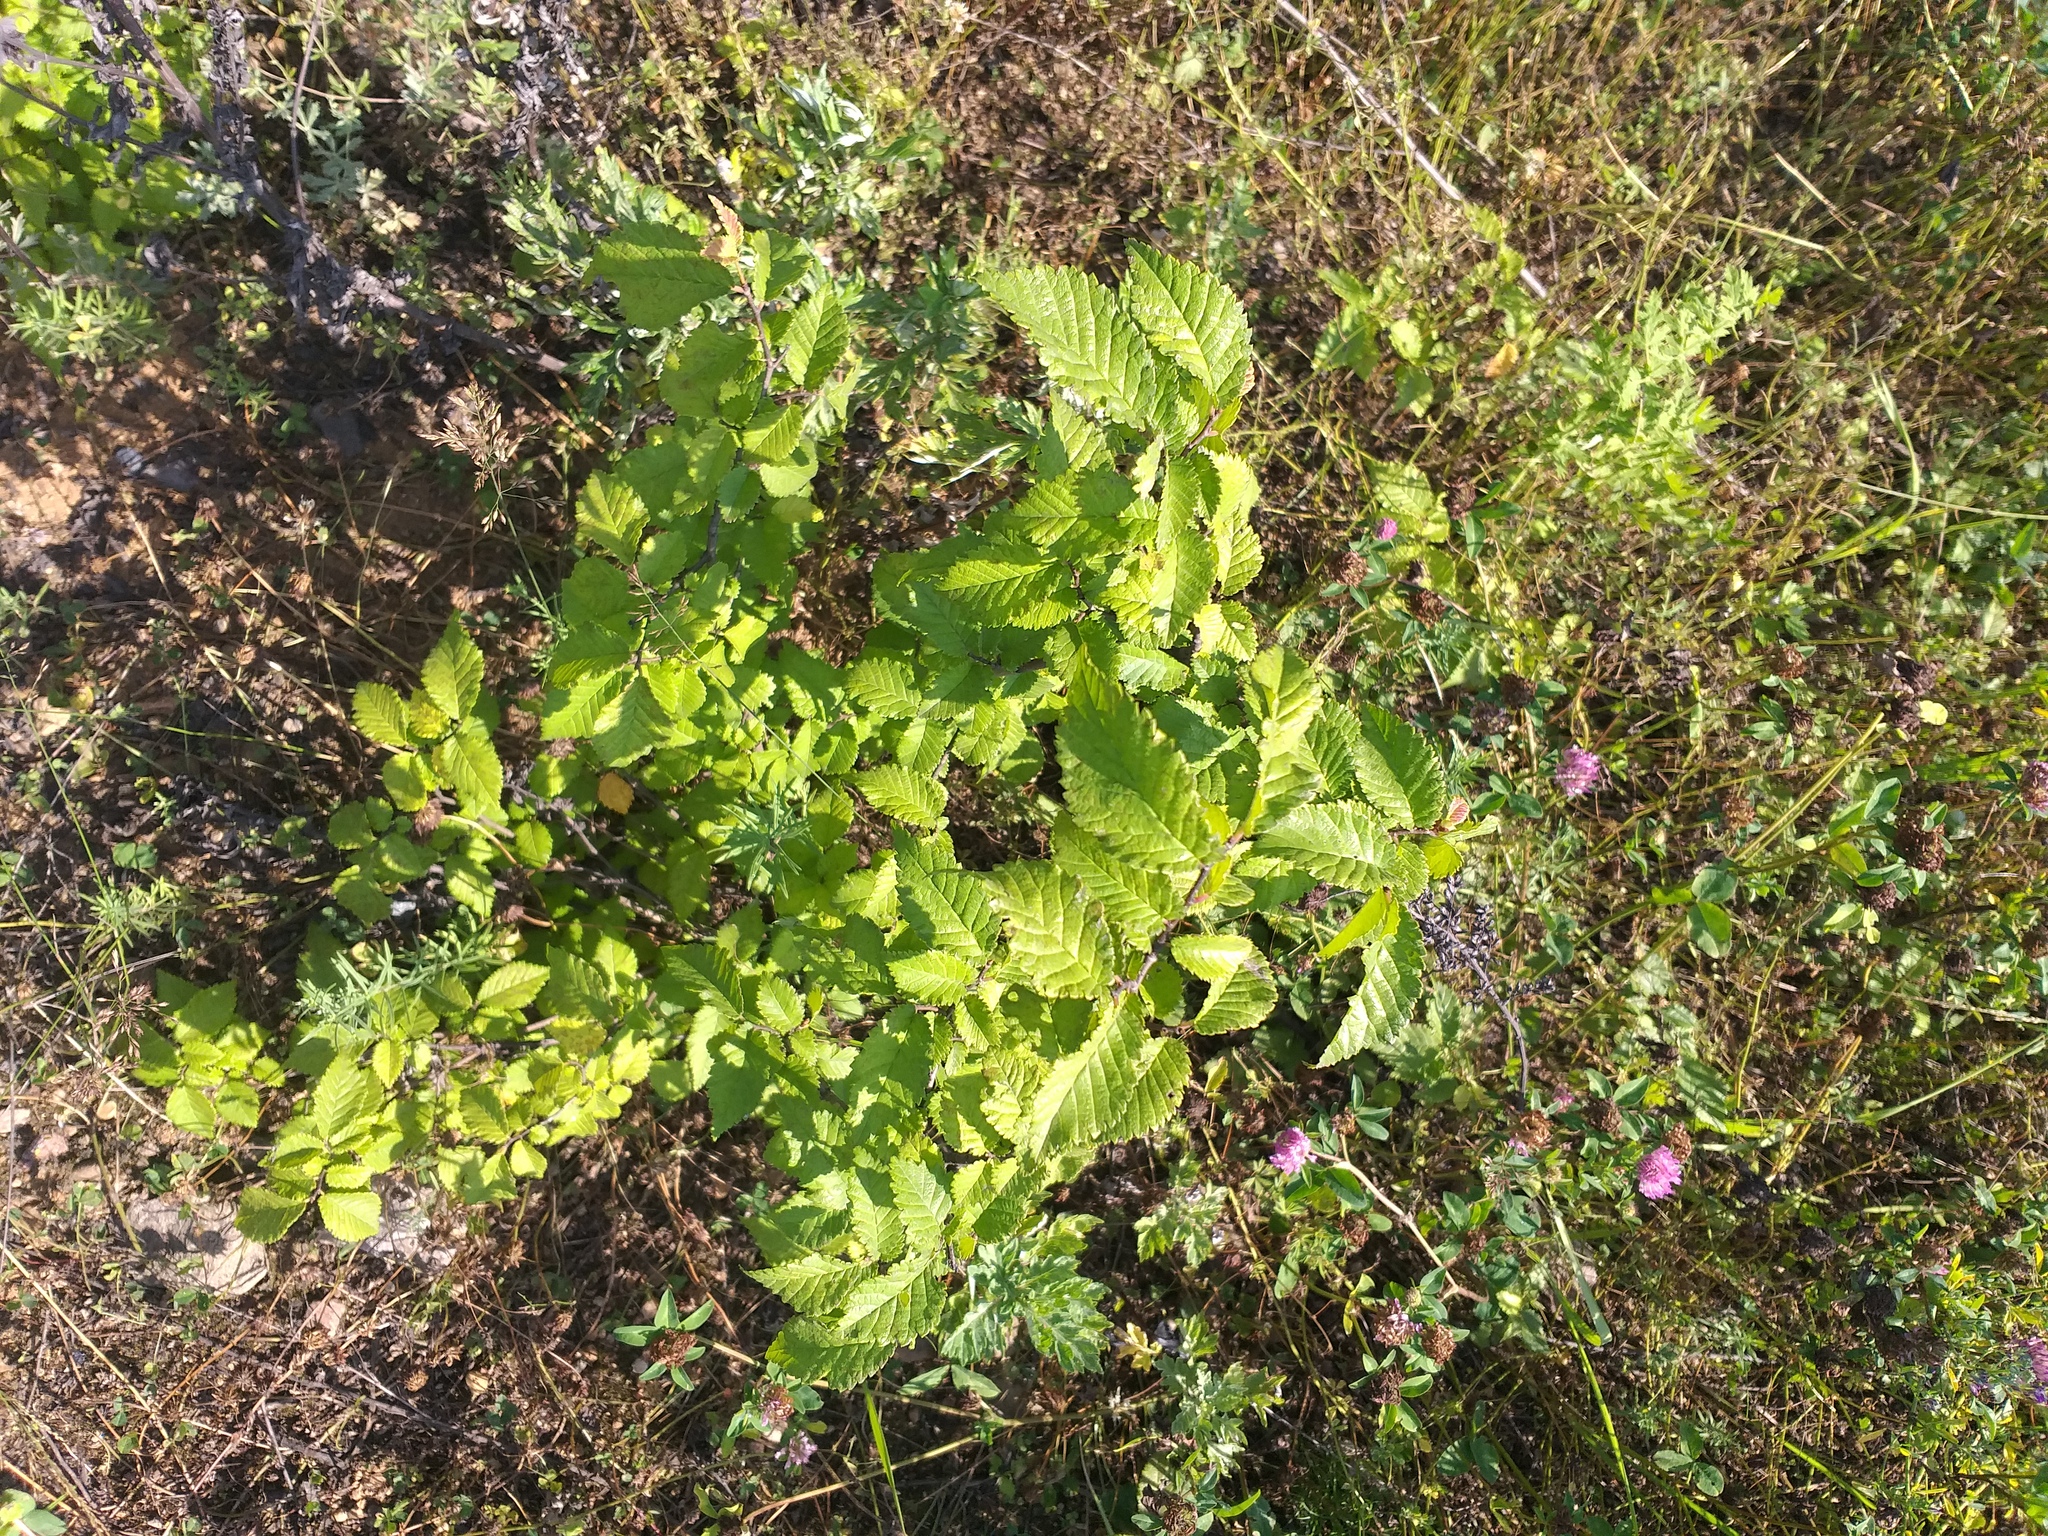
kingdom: Plantae
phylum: Tracheophyta
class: Magnoliopsida
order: Rosales
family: Ulmaceae
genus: Ulmus
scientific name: Ulmus glabra
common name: Wych elm
